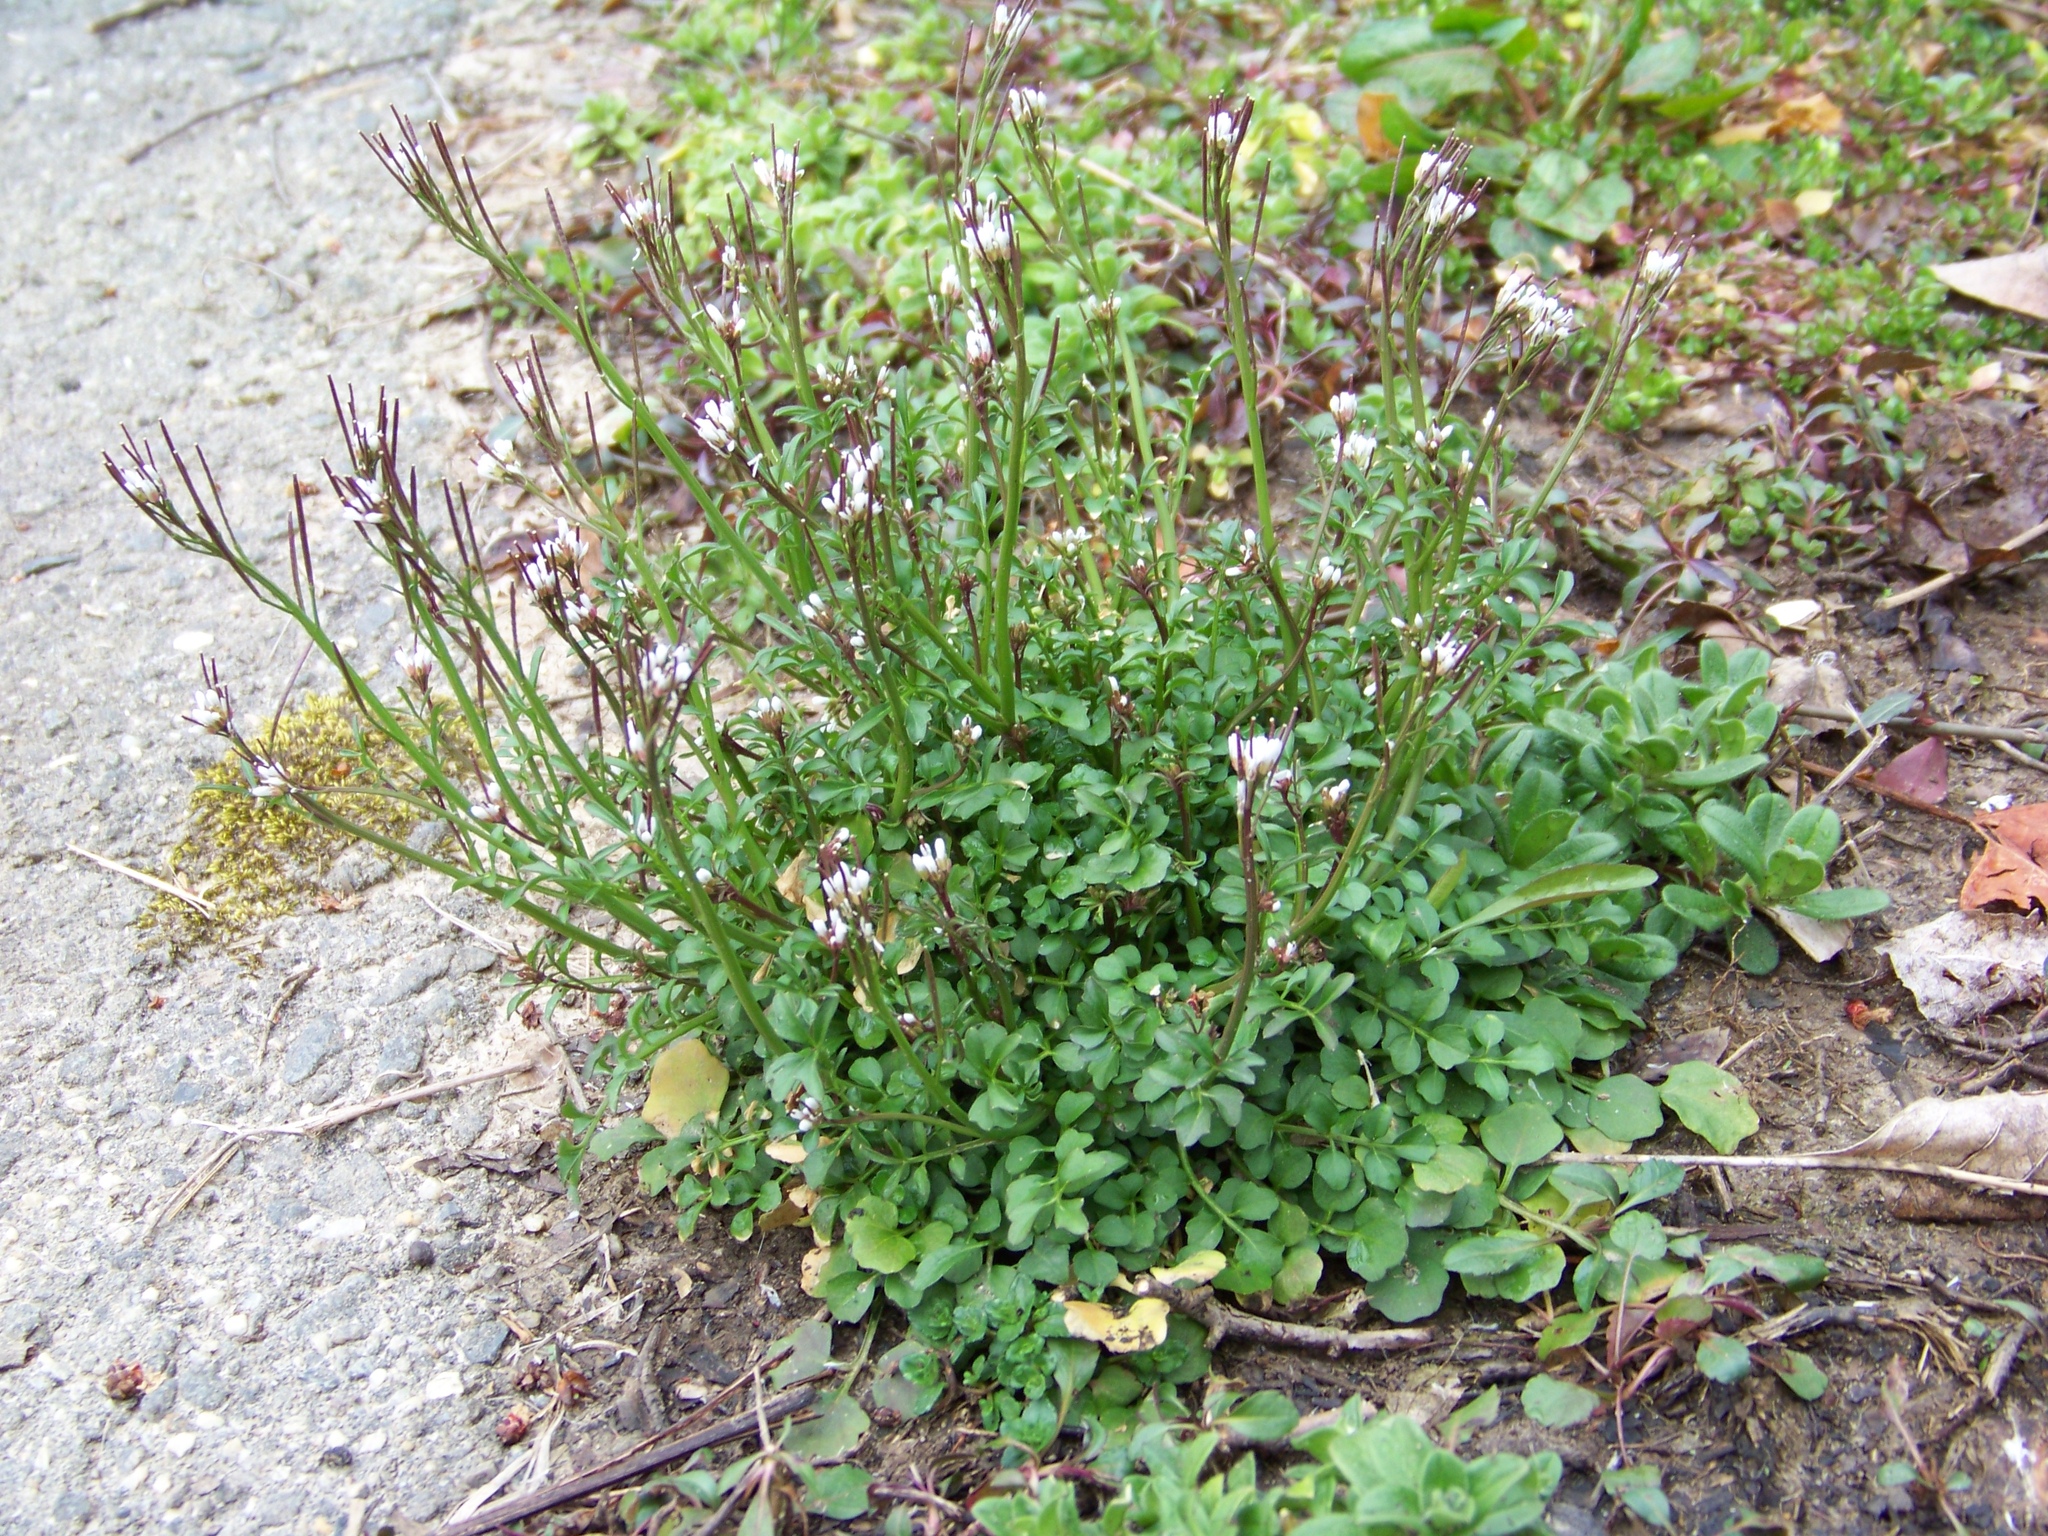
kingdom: Plantae
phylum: Tracheophyta
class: Magnoliopsida
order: Brassicales
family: Brassicaceae
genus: Cardamine
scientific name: Cardamine hirsuta
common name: Hairy bittercress
